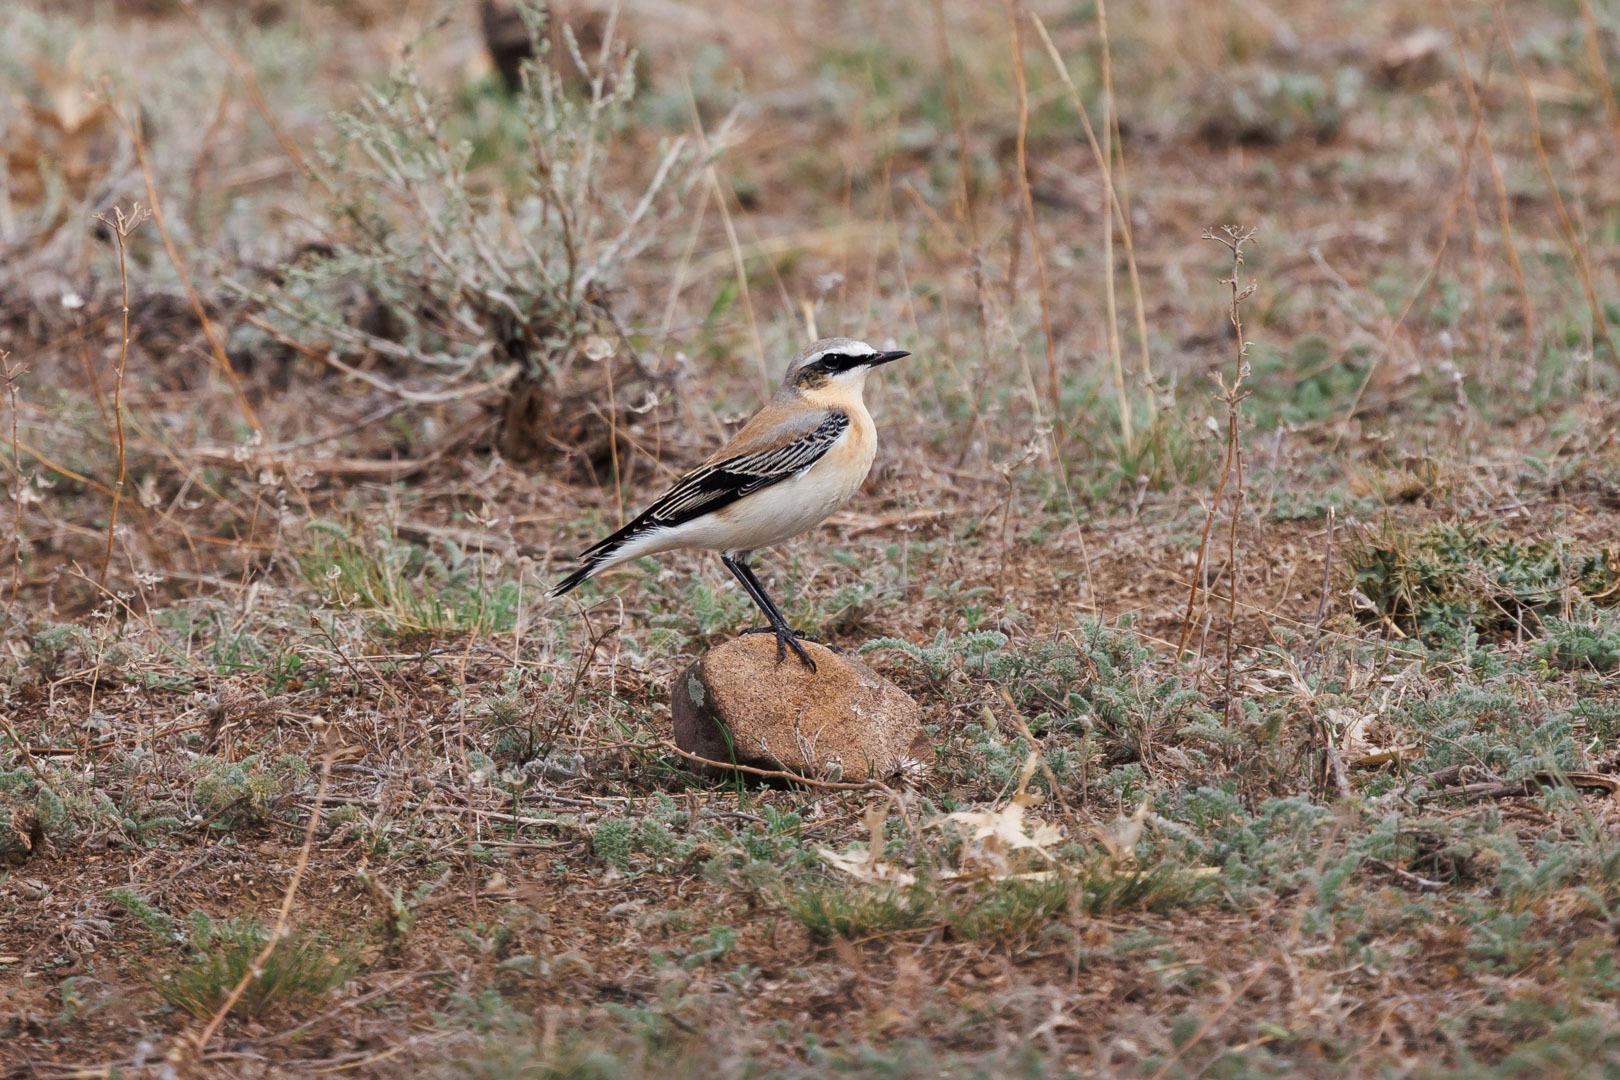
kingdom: Animalia
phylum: Chordata
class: Aves
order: Passeriformes
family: Muscicapidae
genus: Oenanthe
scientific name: Oenanthe oenanthe
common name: Northern wheatear
